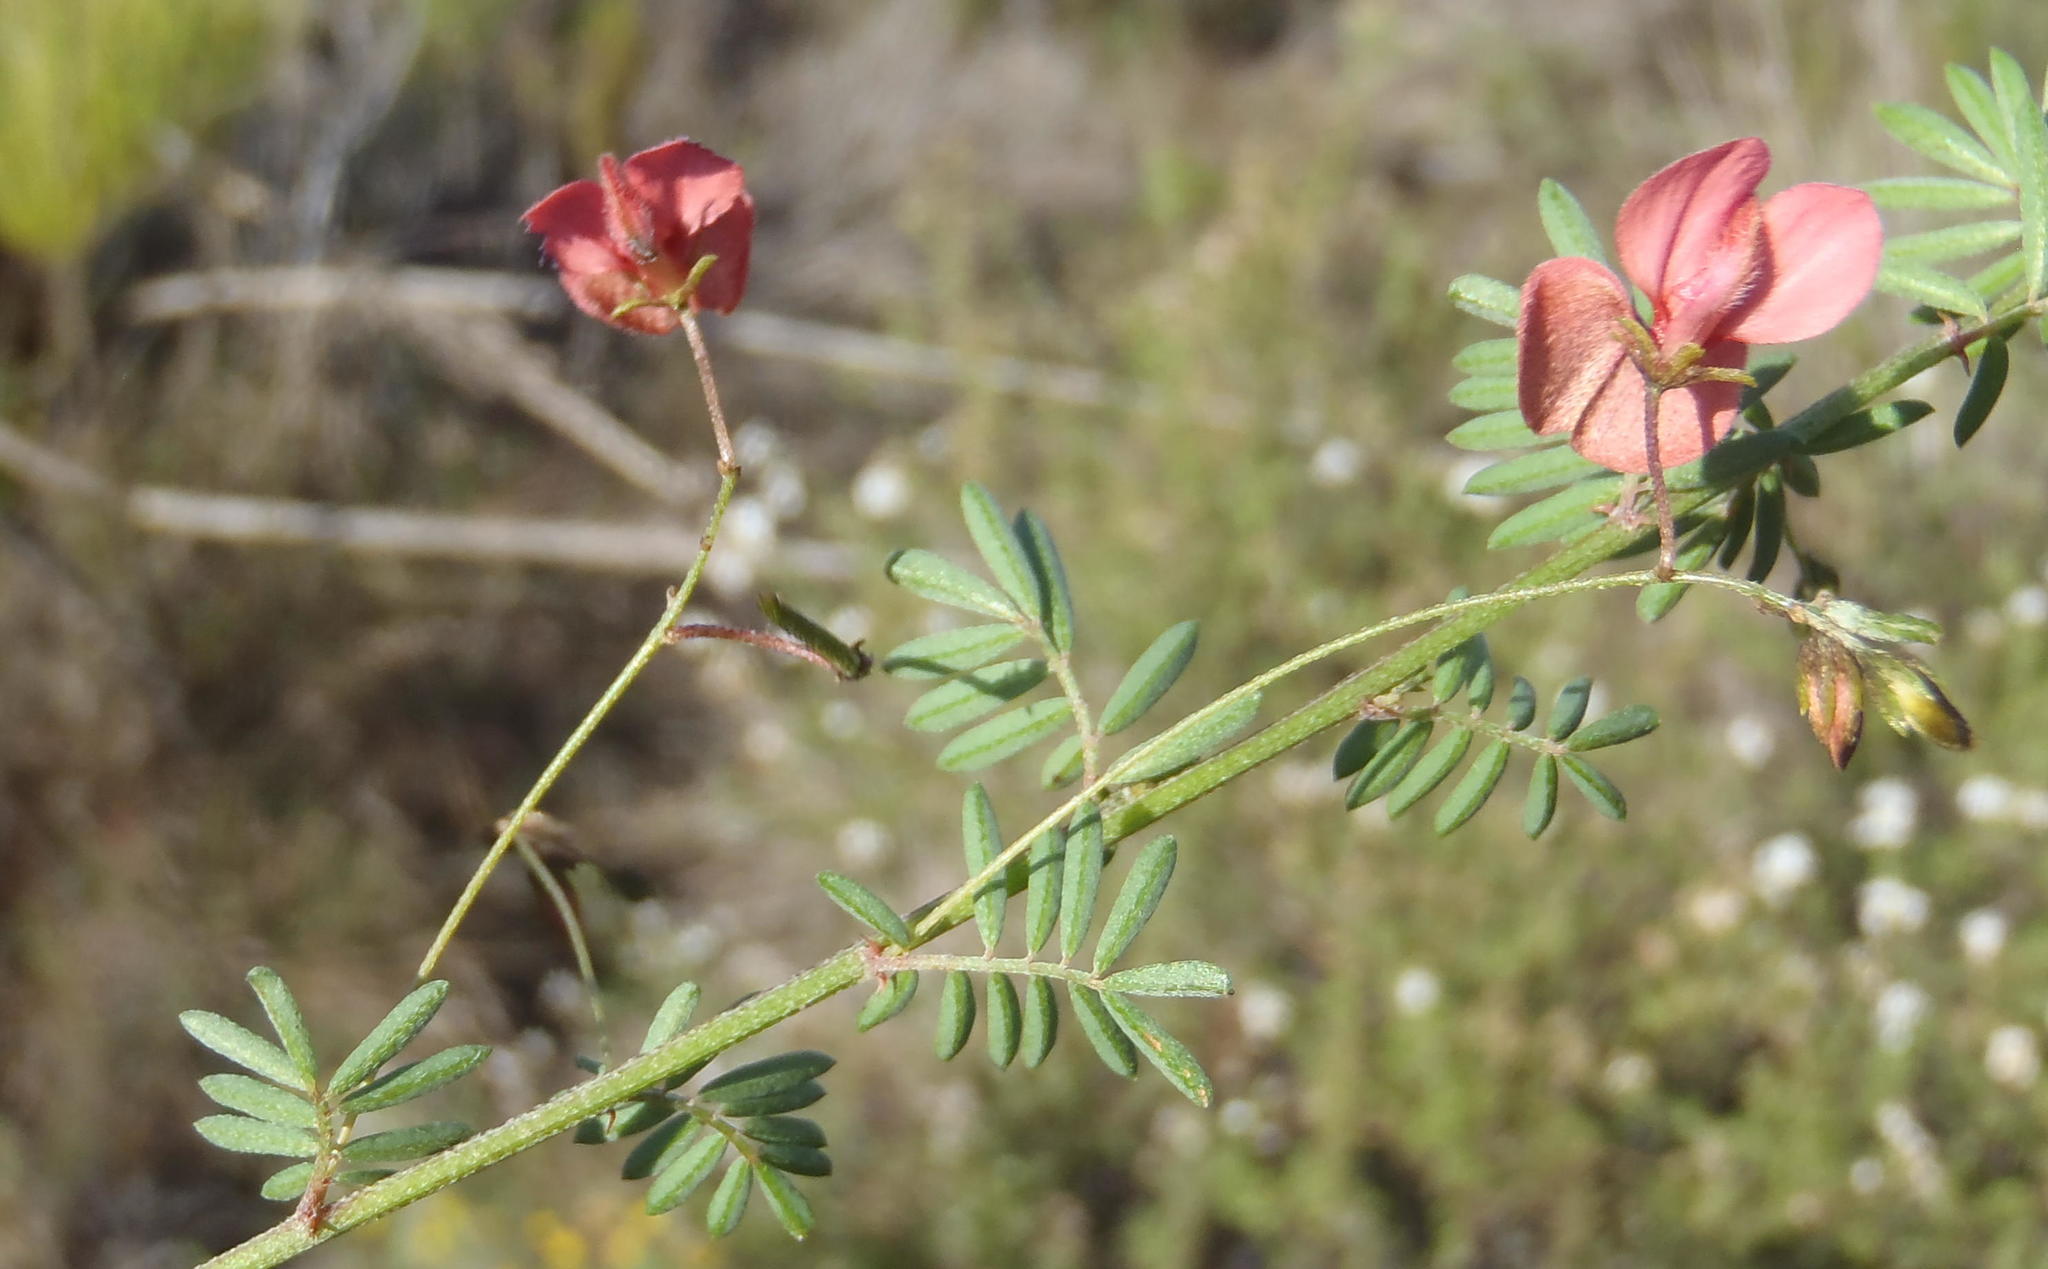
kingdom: Plantae
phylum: Tracheophyta
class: Magnoliopsida
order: Fabales
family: Fabaceae
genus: Indigofera
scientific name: Indigofera verrucosa
